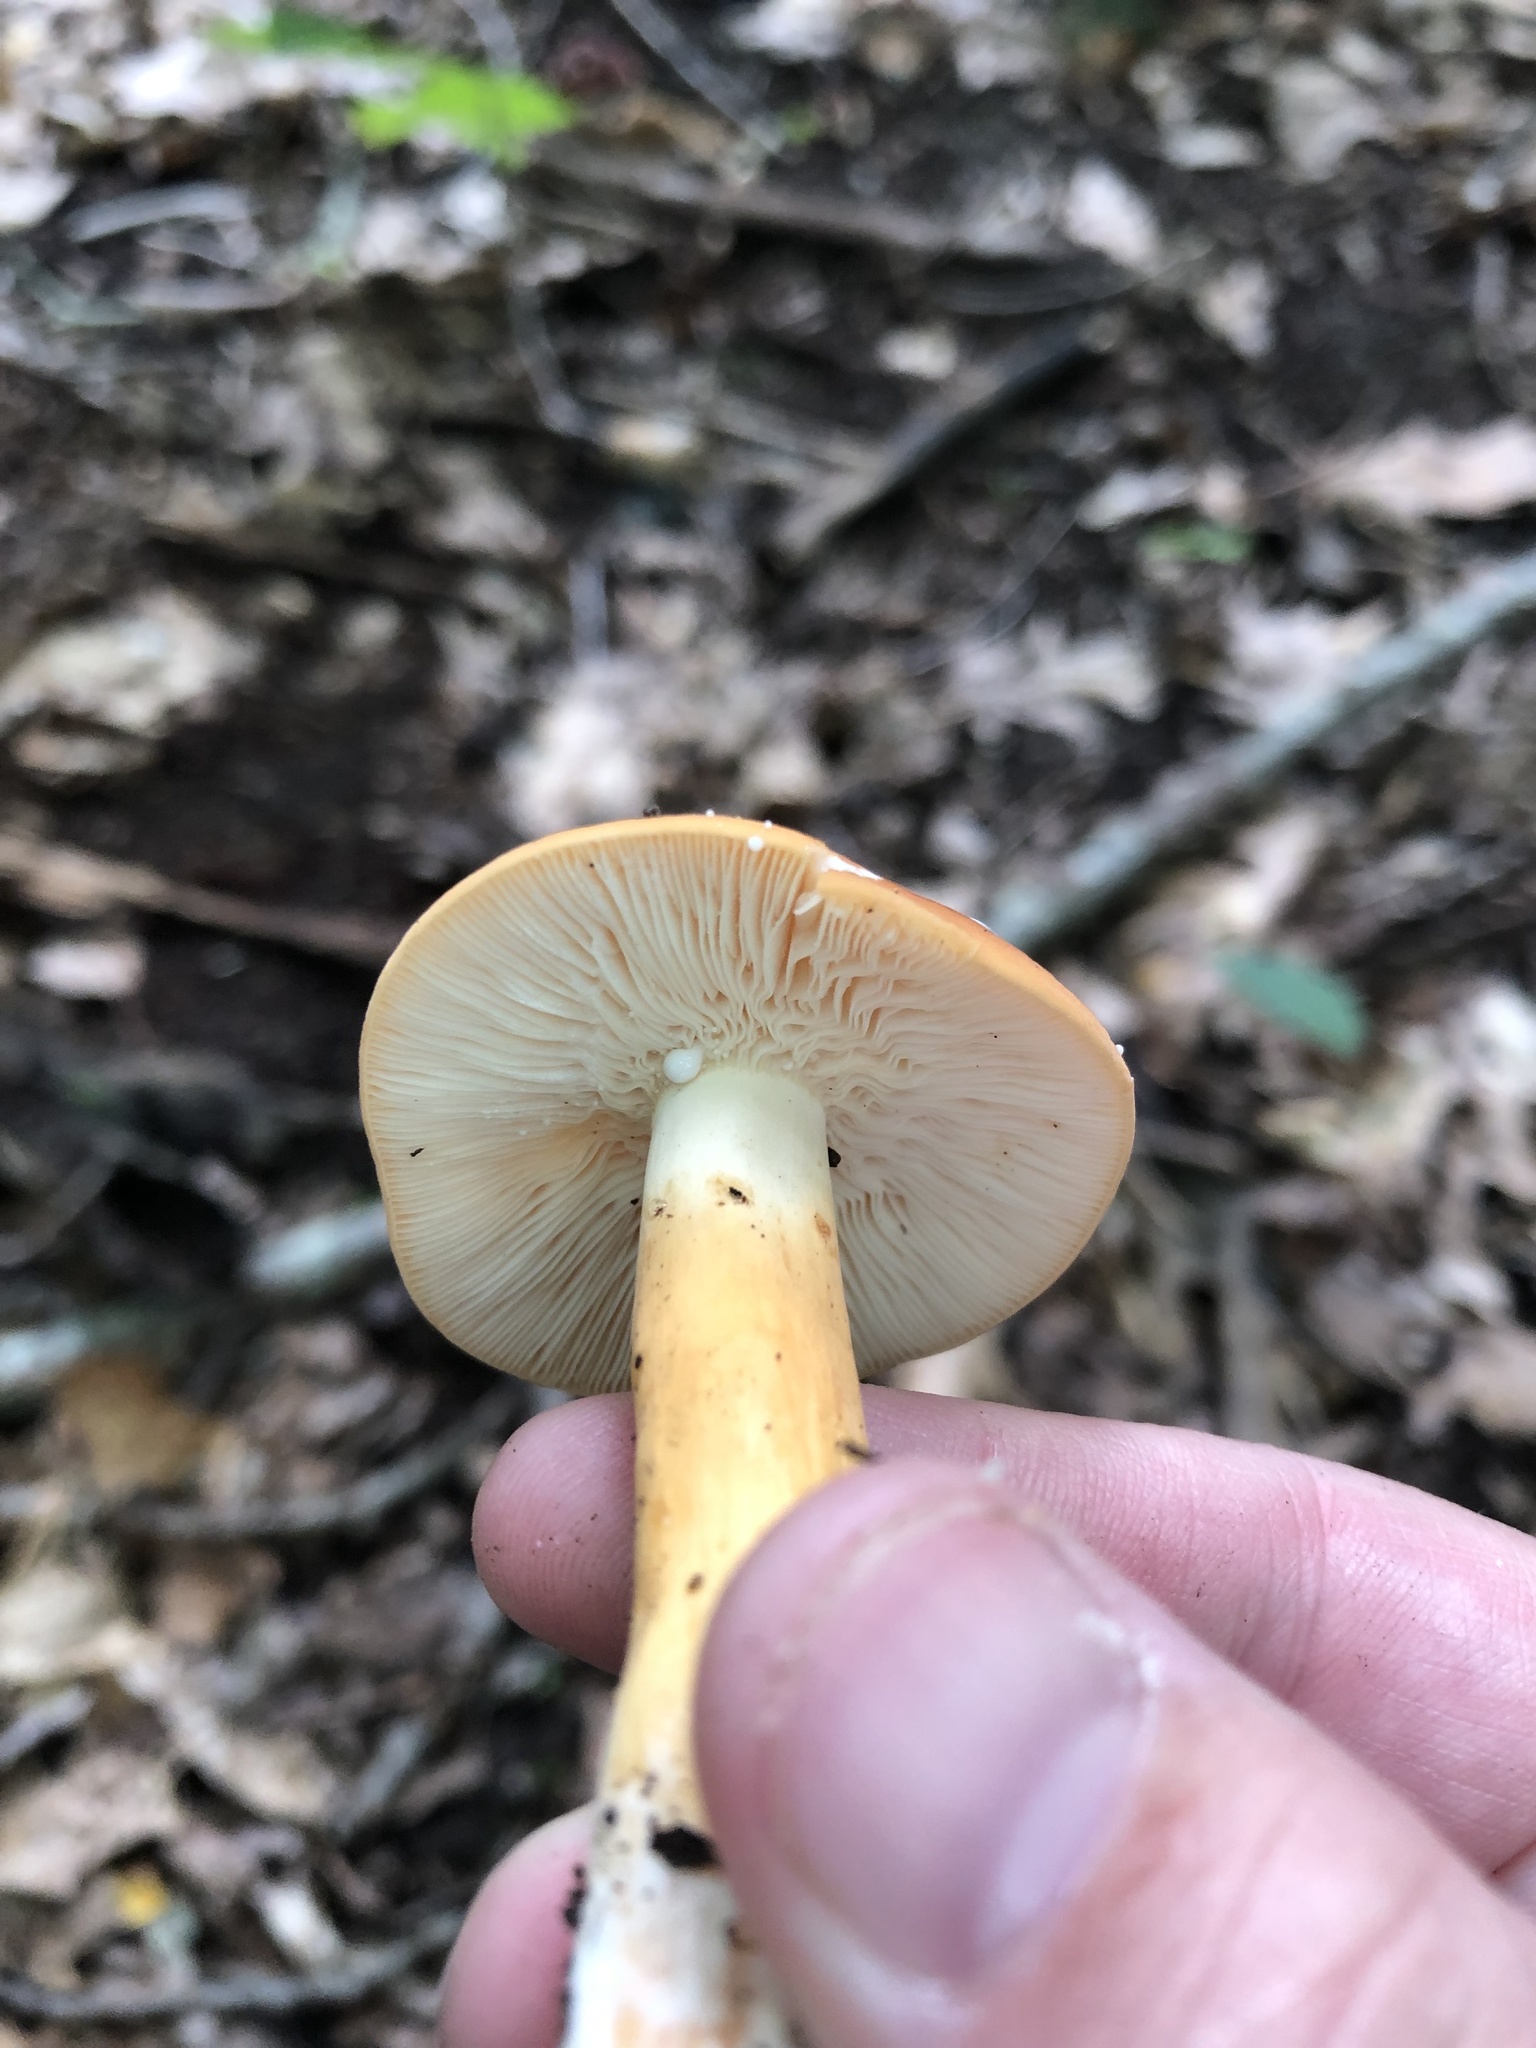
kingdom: Fungi
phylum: Basidiomycota
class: Agaricomycetes
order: Russulales
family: Russulaceae
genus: Lactifluus
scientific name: Lactifluus volemus
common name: Fishy milkcap
